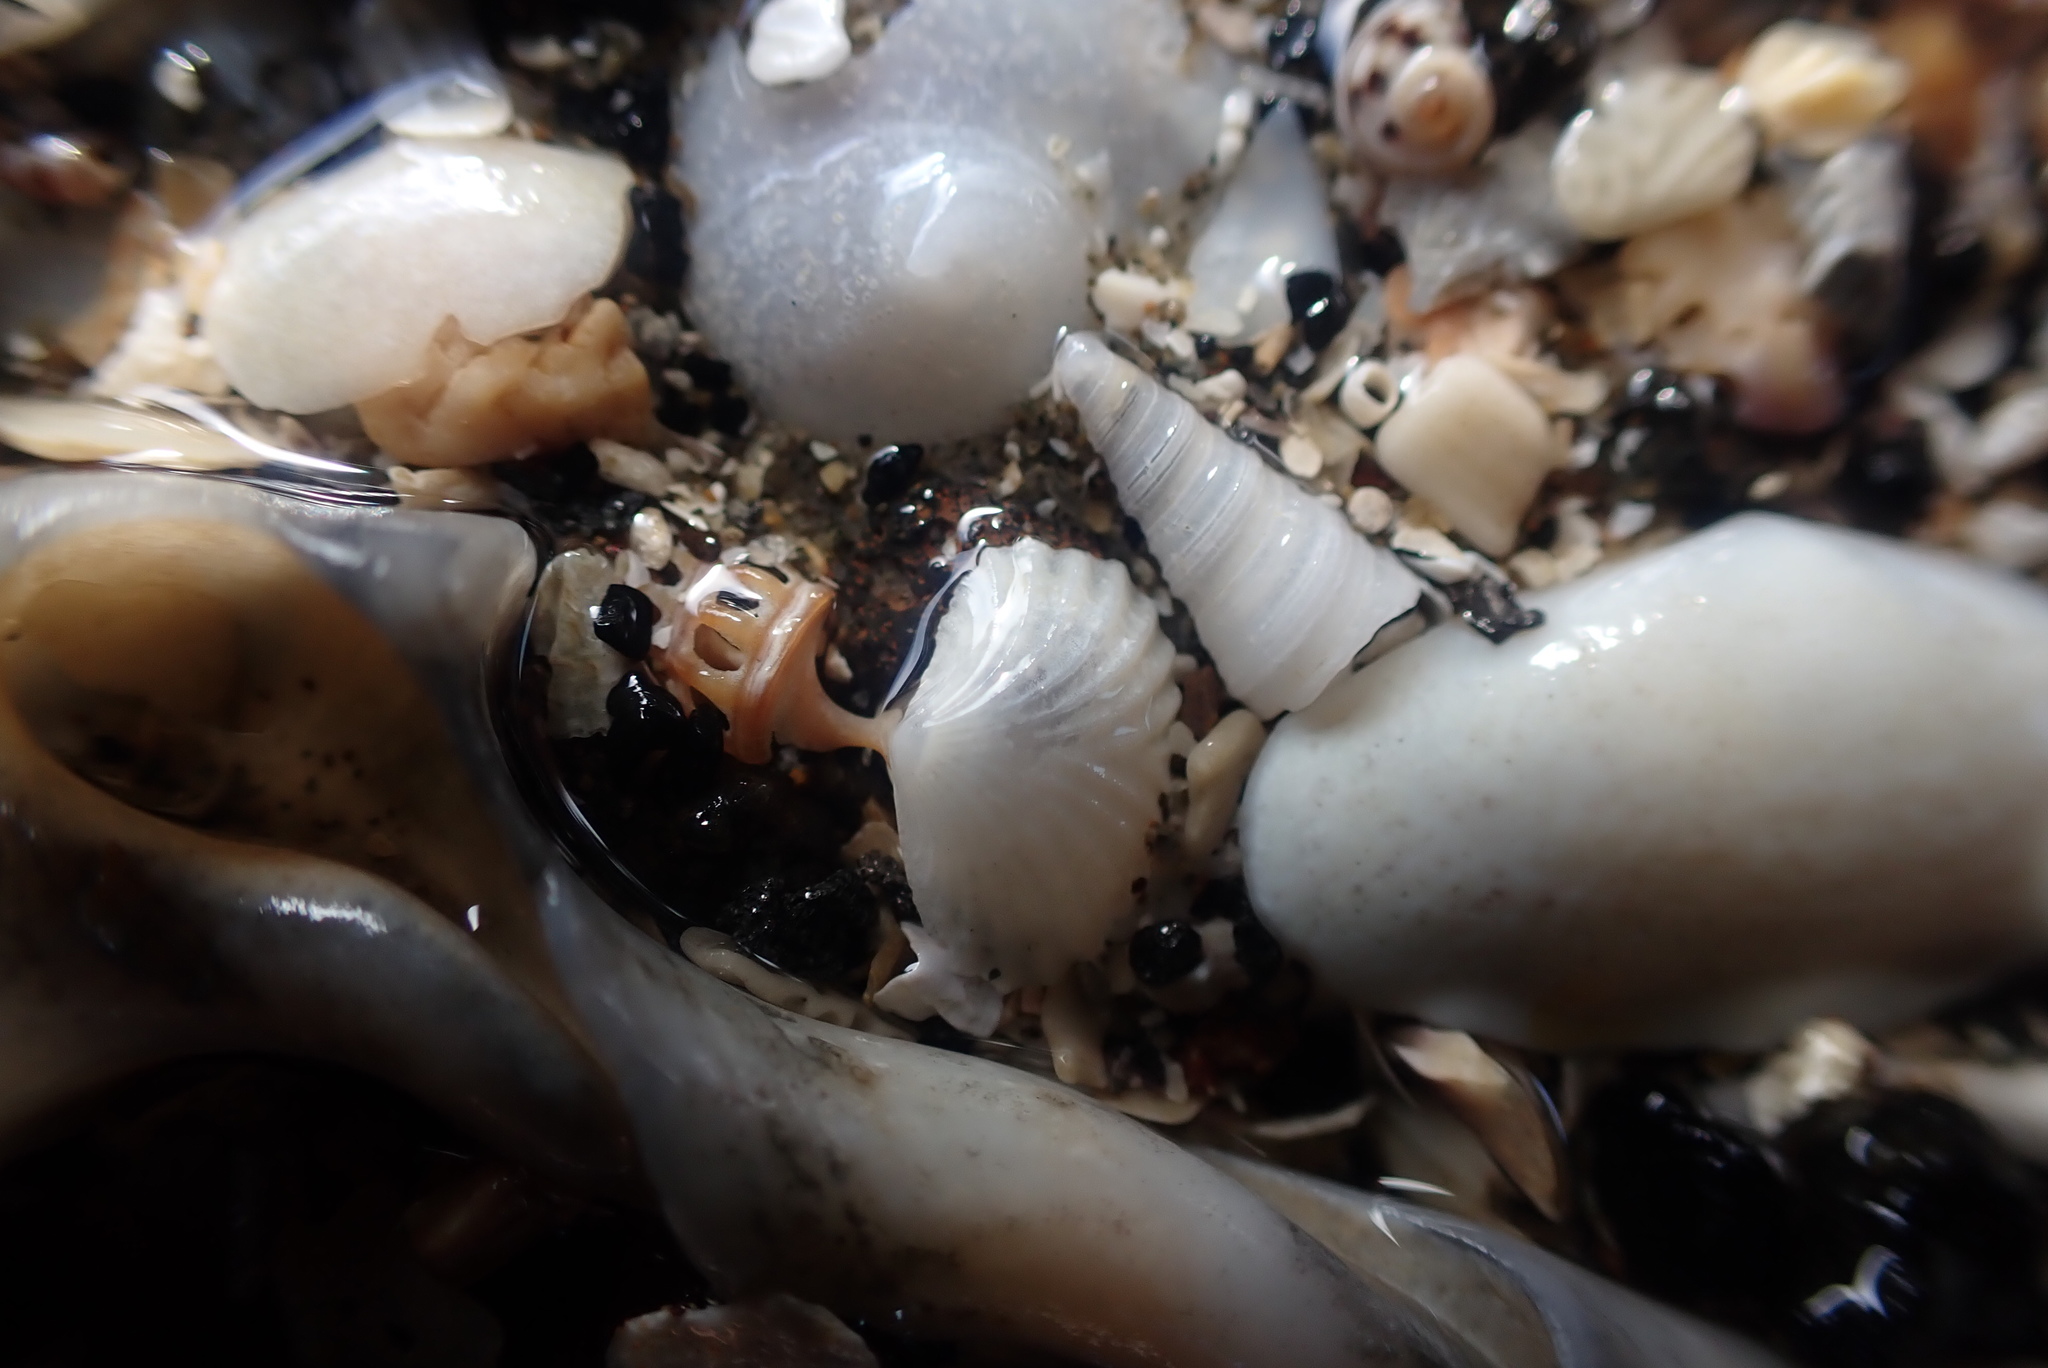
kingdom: Animalia
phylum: Mollusca
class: Bivalvia
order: Galeommatida
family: Lasaeidae
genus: Myllita
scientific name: Myllita stowei
